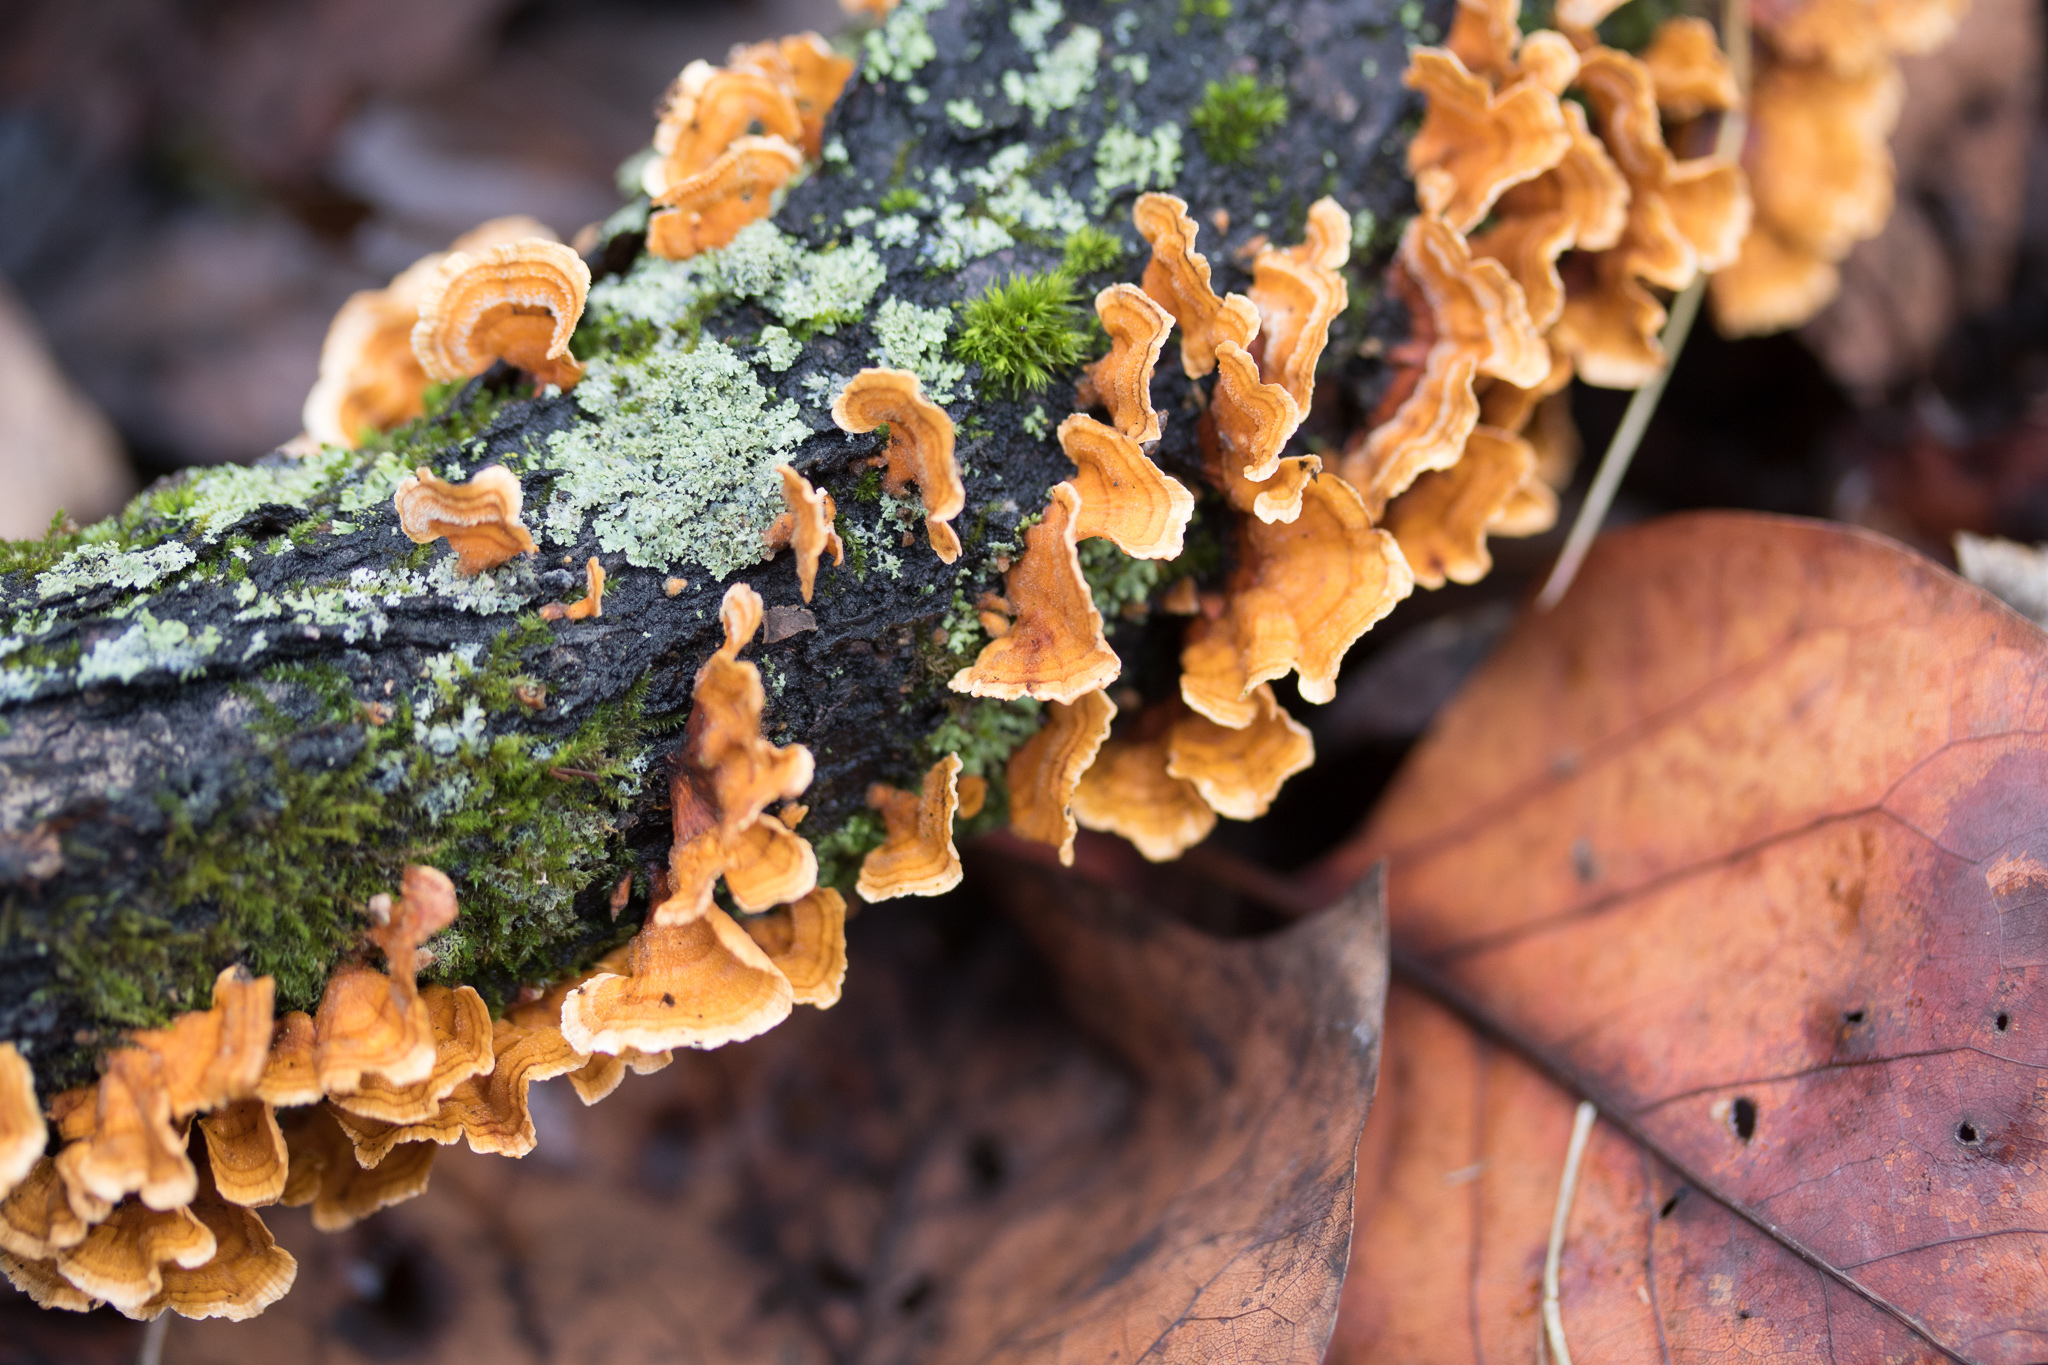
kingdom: Fungi
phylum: Basidiomycota
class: Agaricomycetes
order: Russulales
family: Stereaceae
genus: Stereum
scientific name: Stereum complicatum
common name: Crowded parchment
